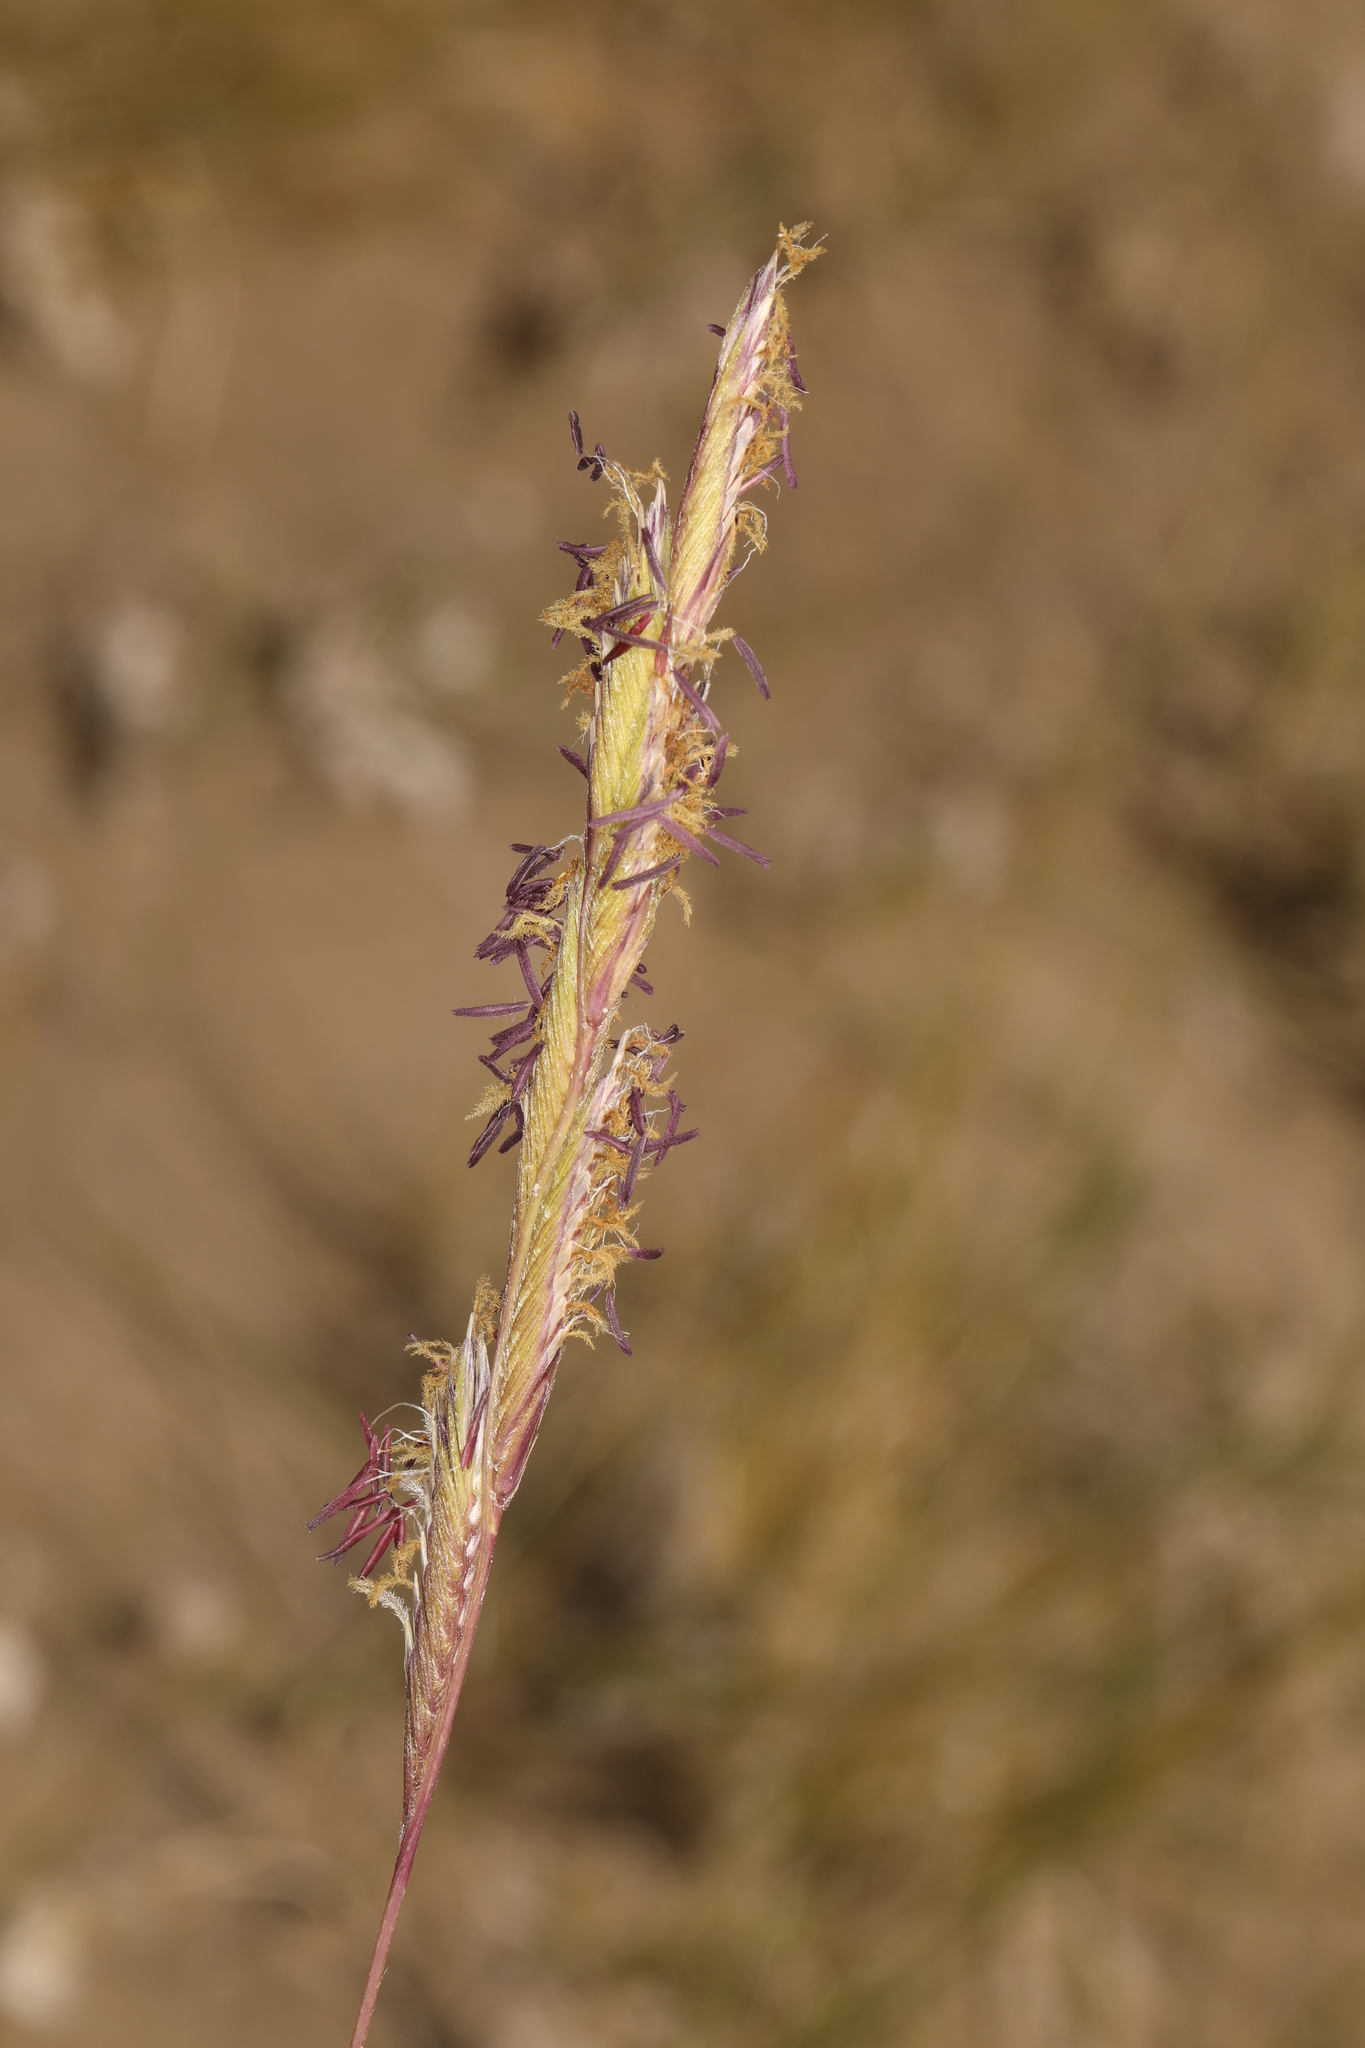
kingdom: Plantae
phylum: Tracheophyta
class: Liliopsida
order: Poales
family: Poaceae
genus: Sporobolus
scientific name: Sporobolus hookerianus
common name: Alkali cordgrass
